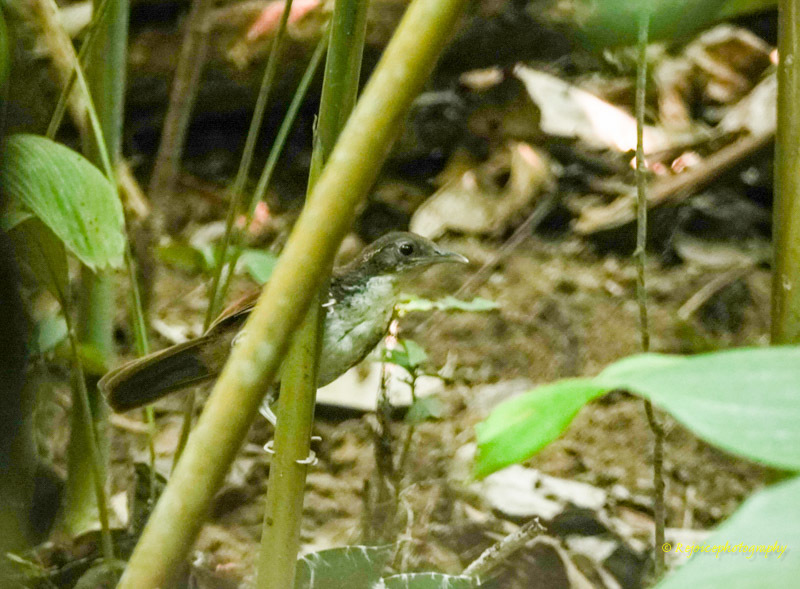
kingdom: Animalia
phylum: Chordata
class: Aves
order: Passeriformes
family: Timaliidae
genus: Pomatorhinus
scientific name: Pomatorhinus hypoleucos
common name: Large scimitar babbler
